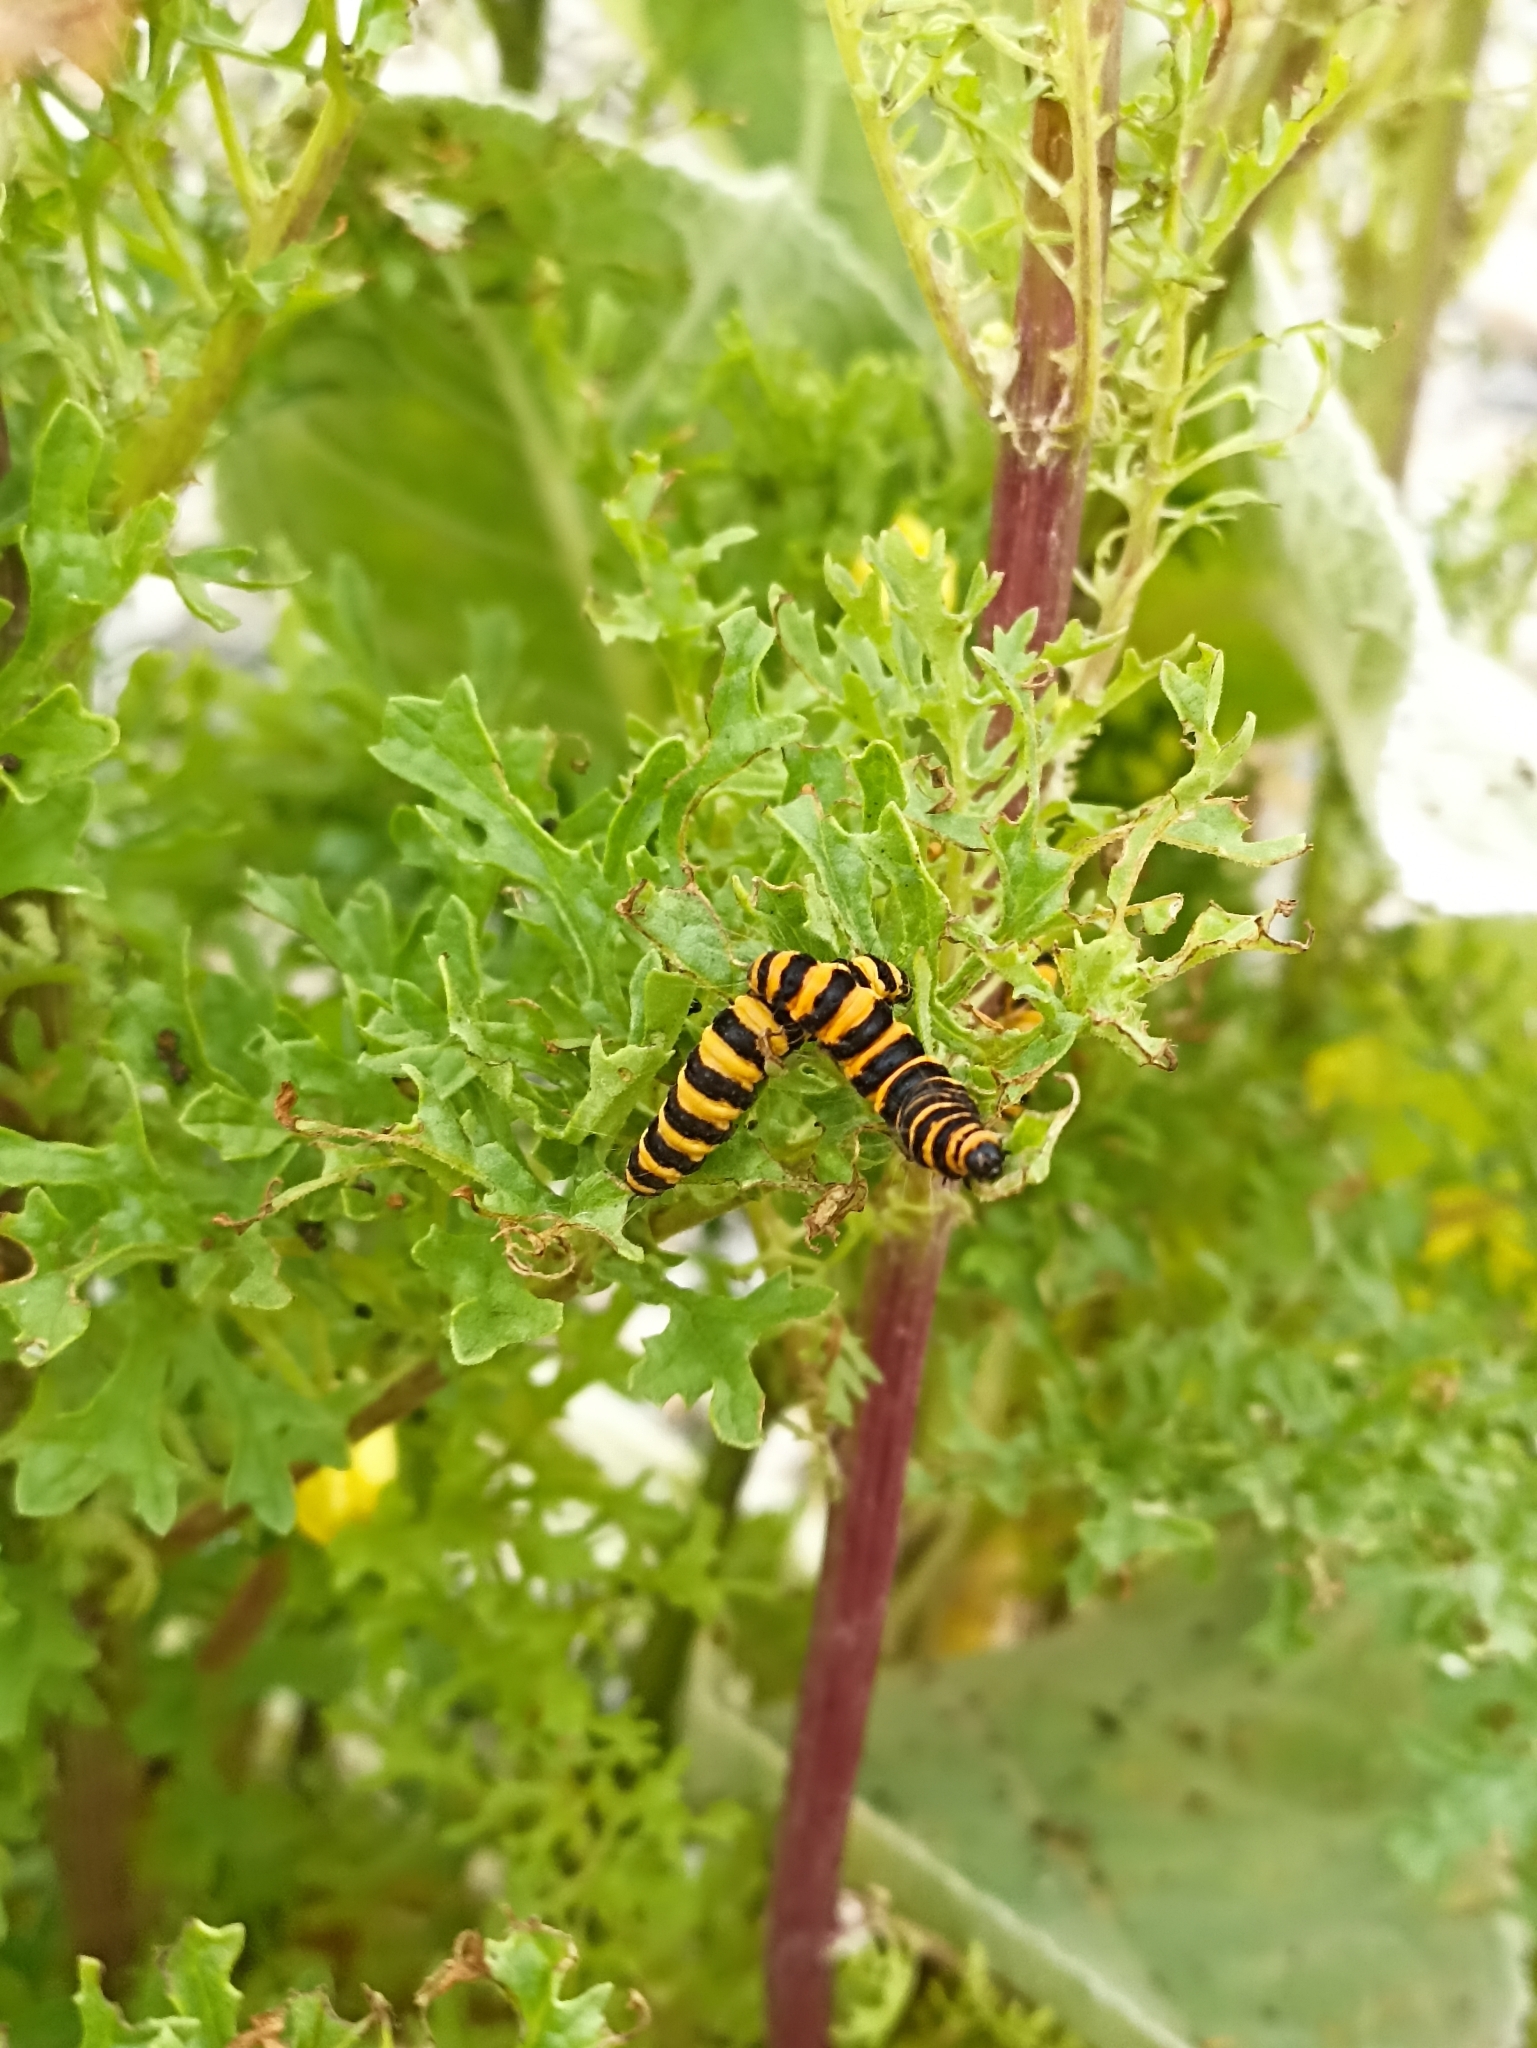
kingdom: Animalia
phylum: Arthropoda
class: Insecta
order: Lepidoptera
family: Erebidae
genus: Tyria
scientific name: Tyria jacobaeae
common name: Cinnabar
